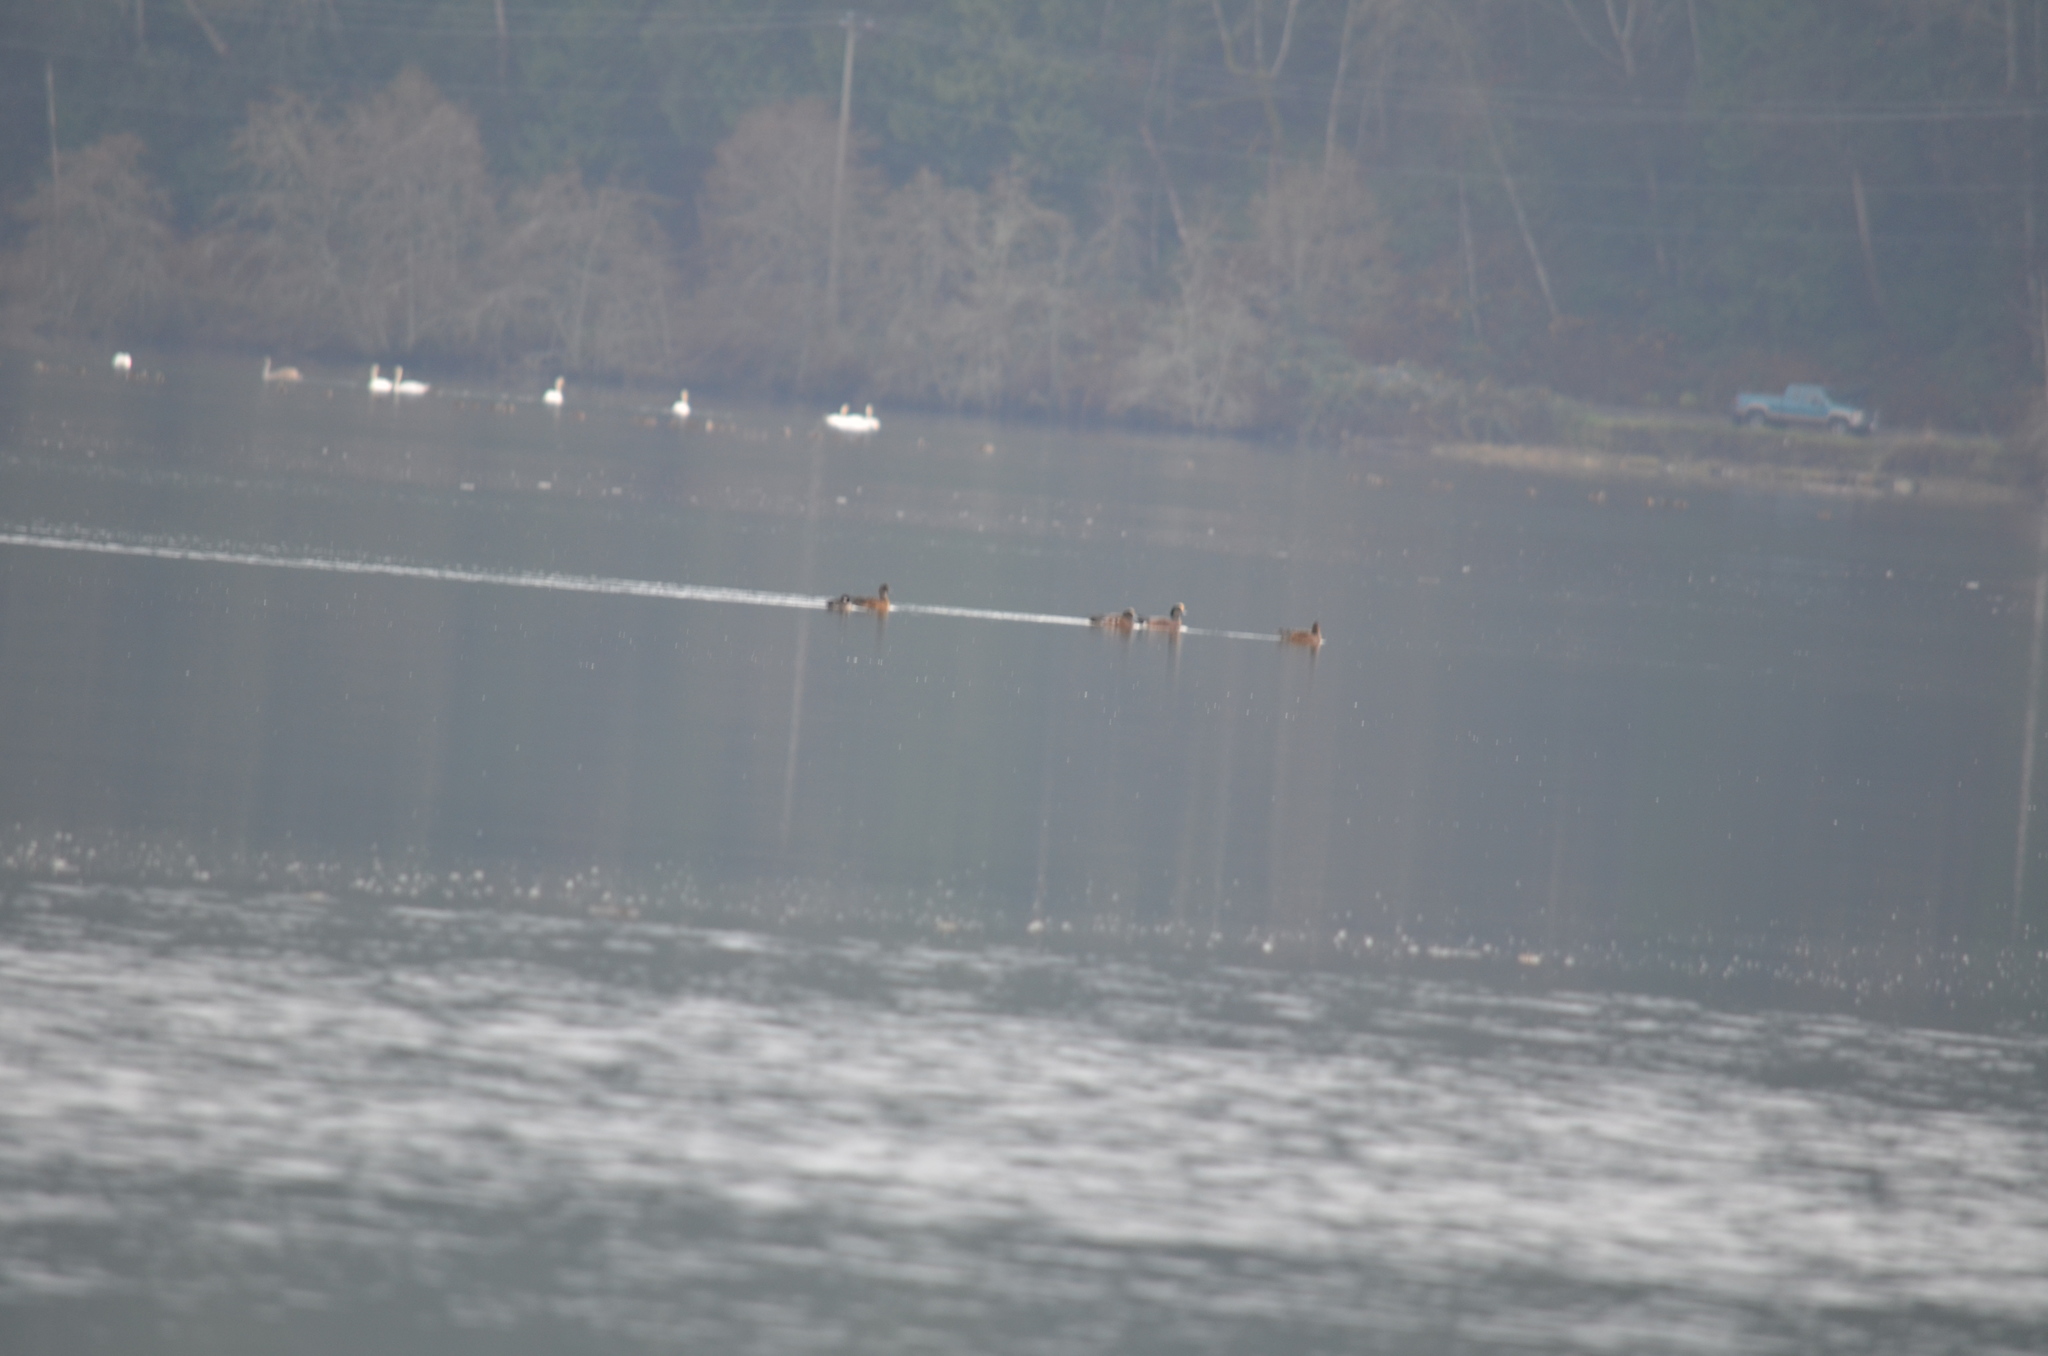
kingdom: Animalia
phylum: Chordata
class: Aves
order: Anseriformes
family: Anatidae
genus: Mareca
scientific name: Mareca americana
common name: American wigeon
